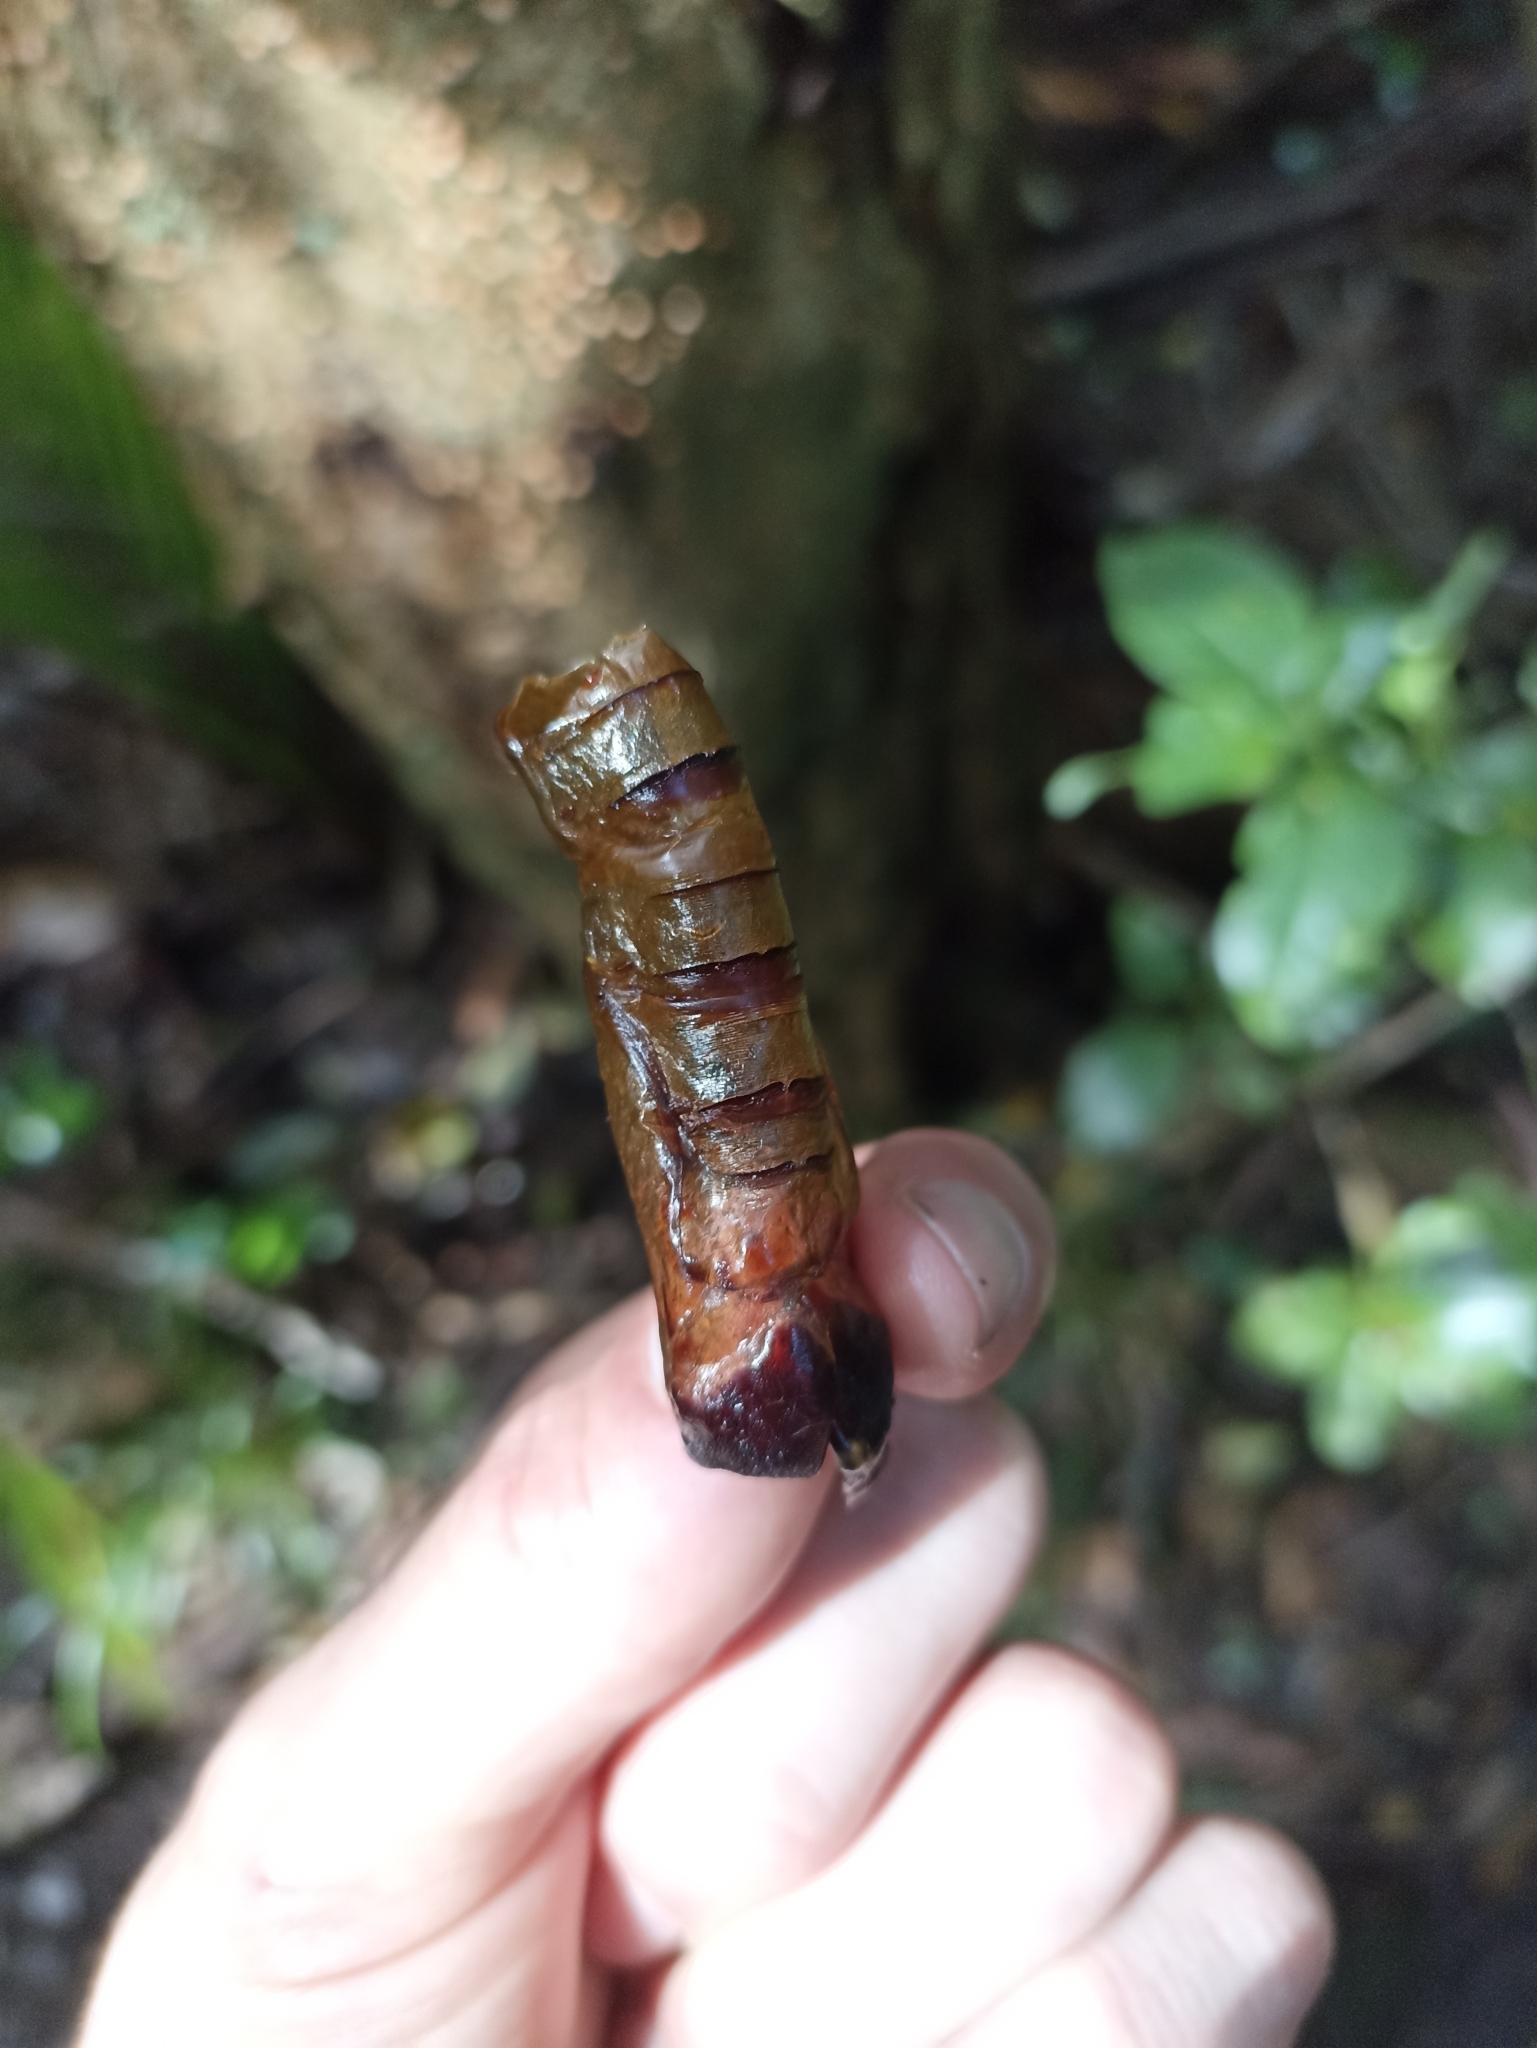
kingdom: Animalia
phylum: Arthropoda
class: Insecta
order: Lepidoptera
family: Hepialidae
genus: Aenetus
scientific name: Aenetus virescens
